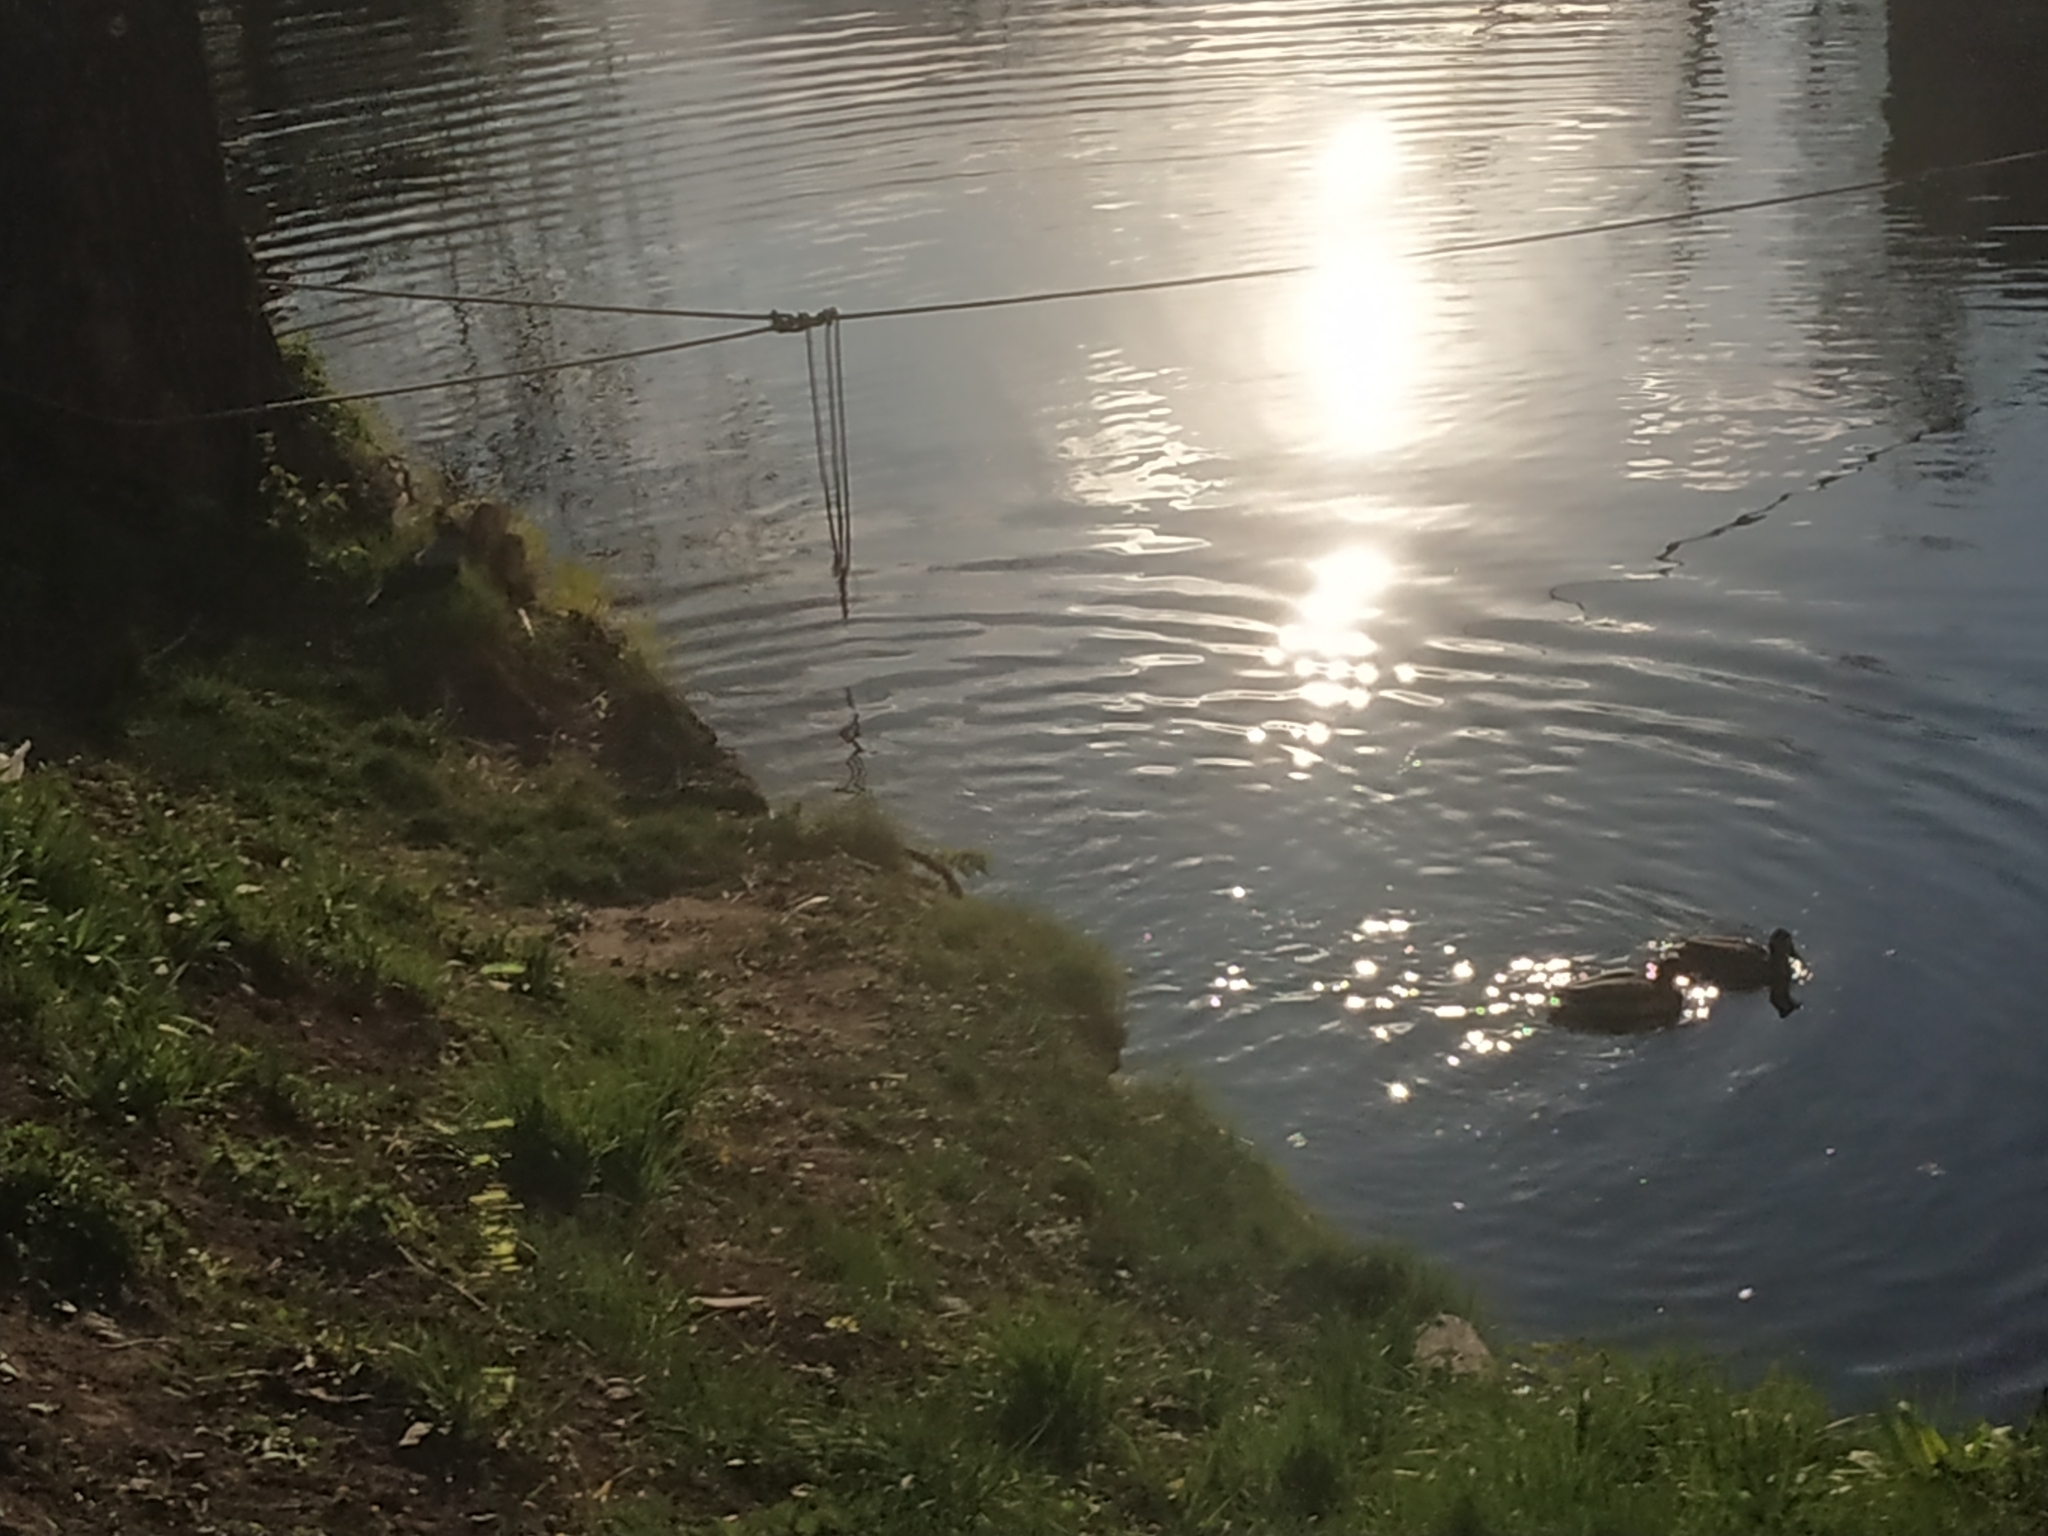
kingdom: Animalia
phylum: Chordata
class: Aves
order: Anseriformes
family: Anatidae
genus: Anas
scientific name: Anas platyrhynchos
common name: Mallard
